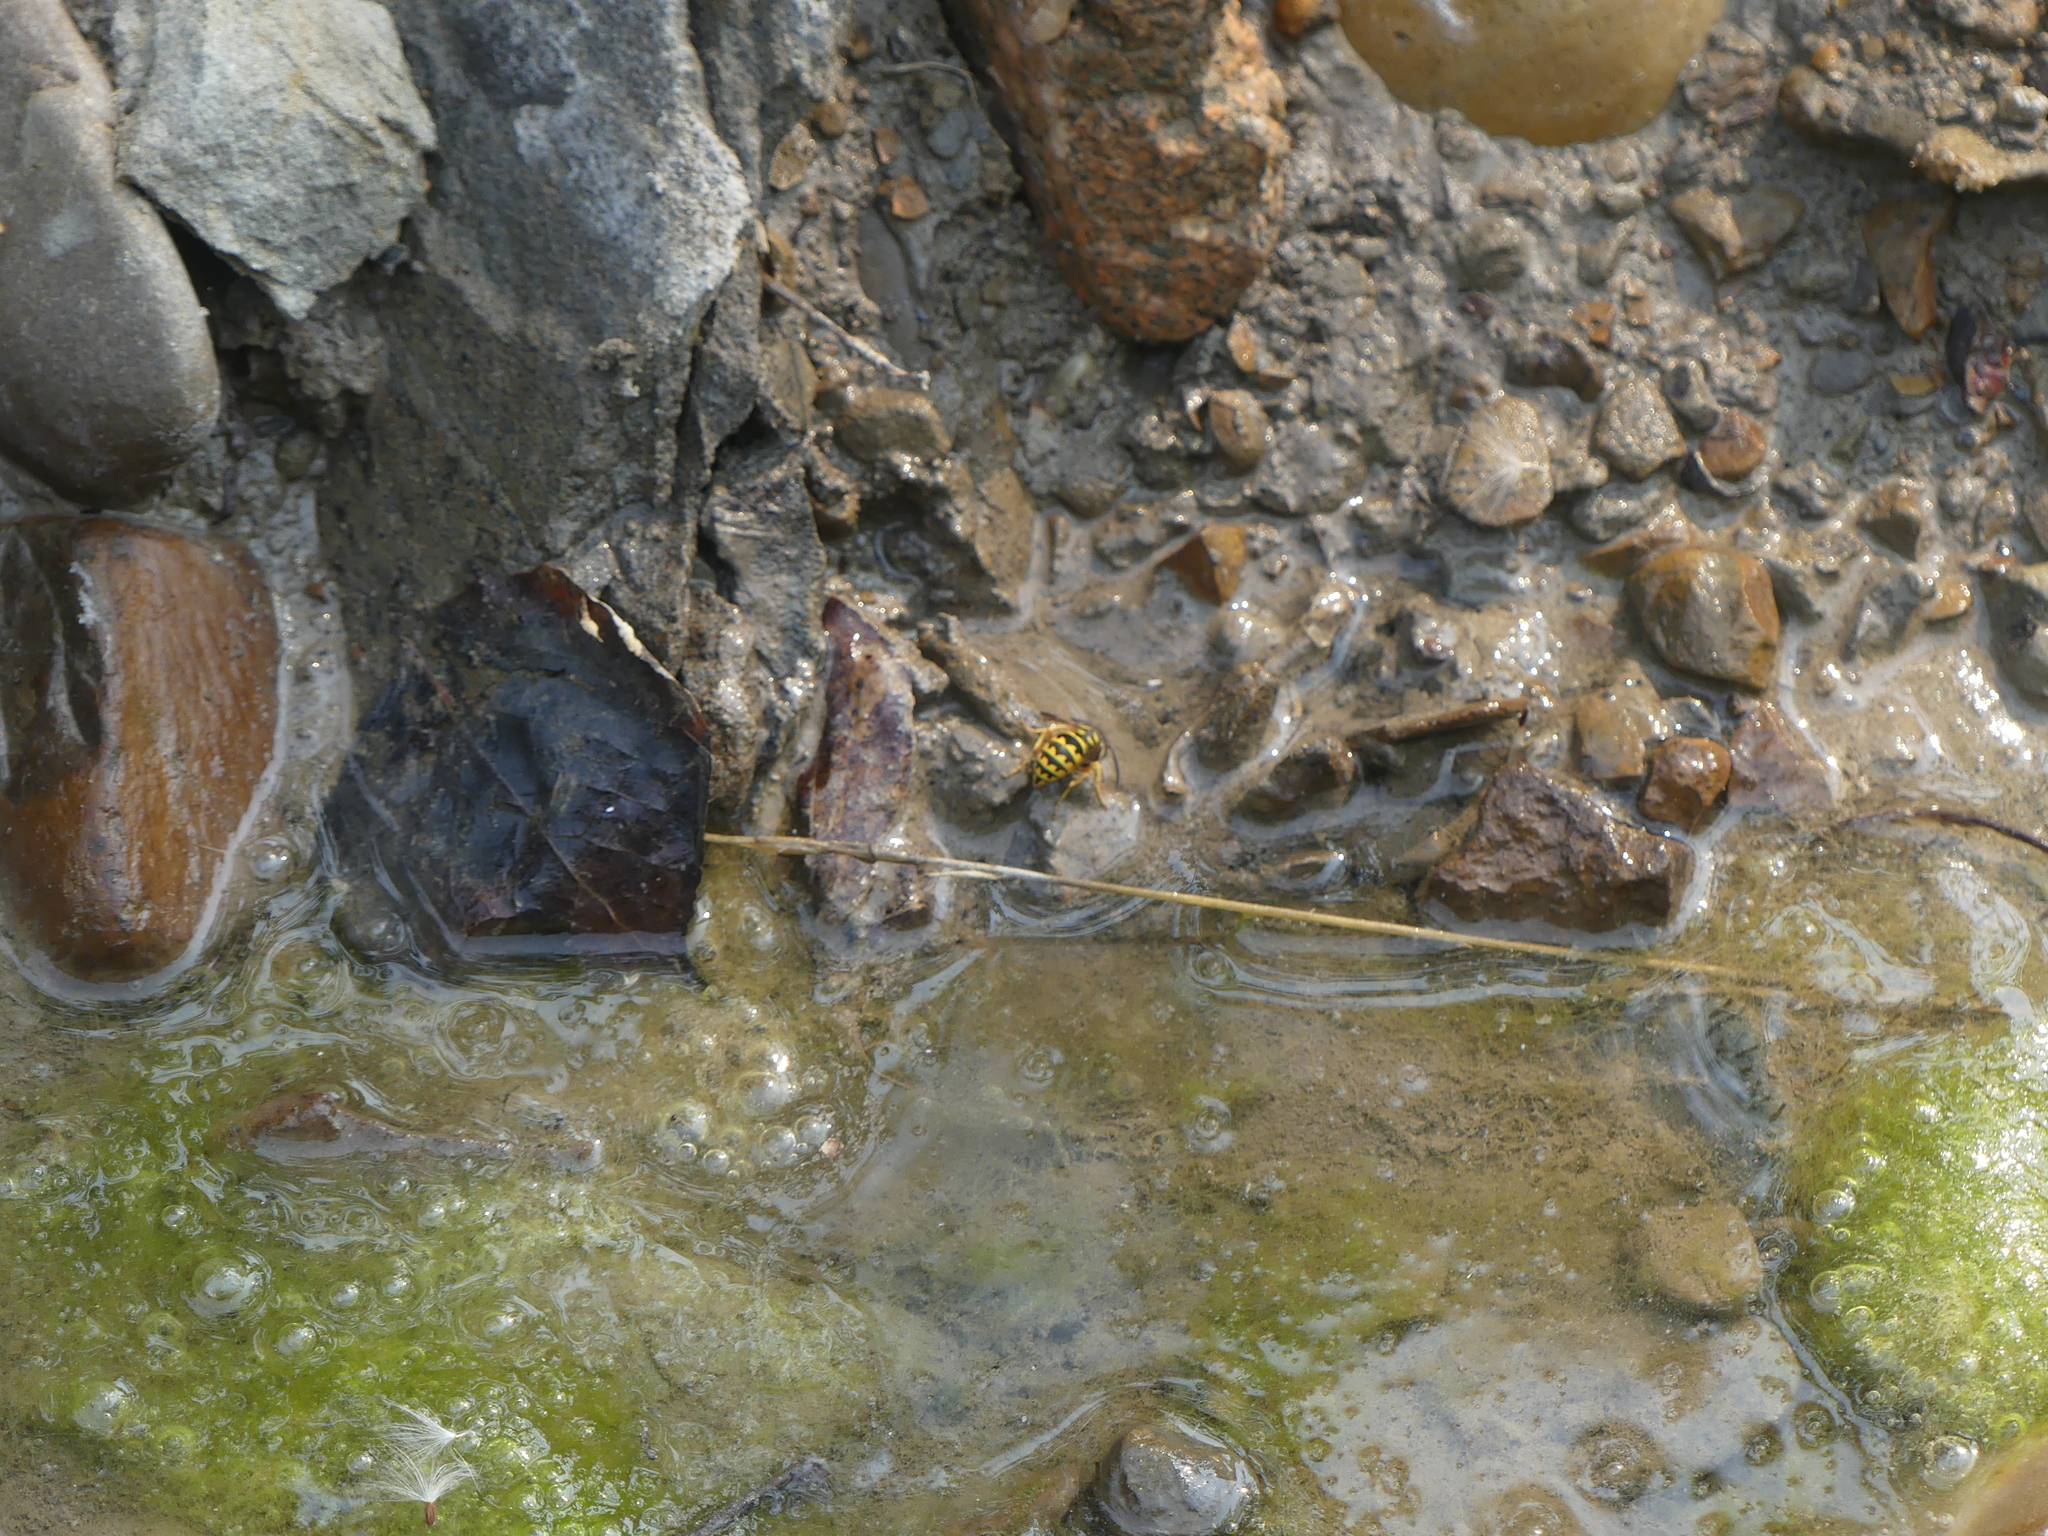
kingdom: Animalia
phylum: Arthropoda
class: Insecta
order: Hymenoptera
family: Vespidae
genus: Vespula
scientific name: Vespula pensylvanica
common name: Western yellowjacket
